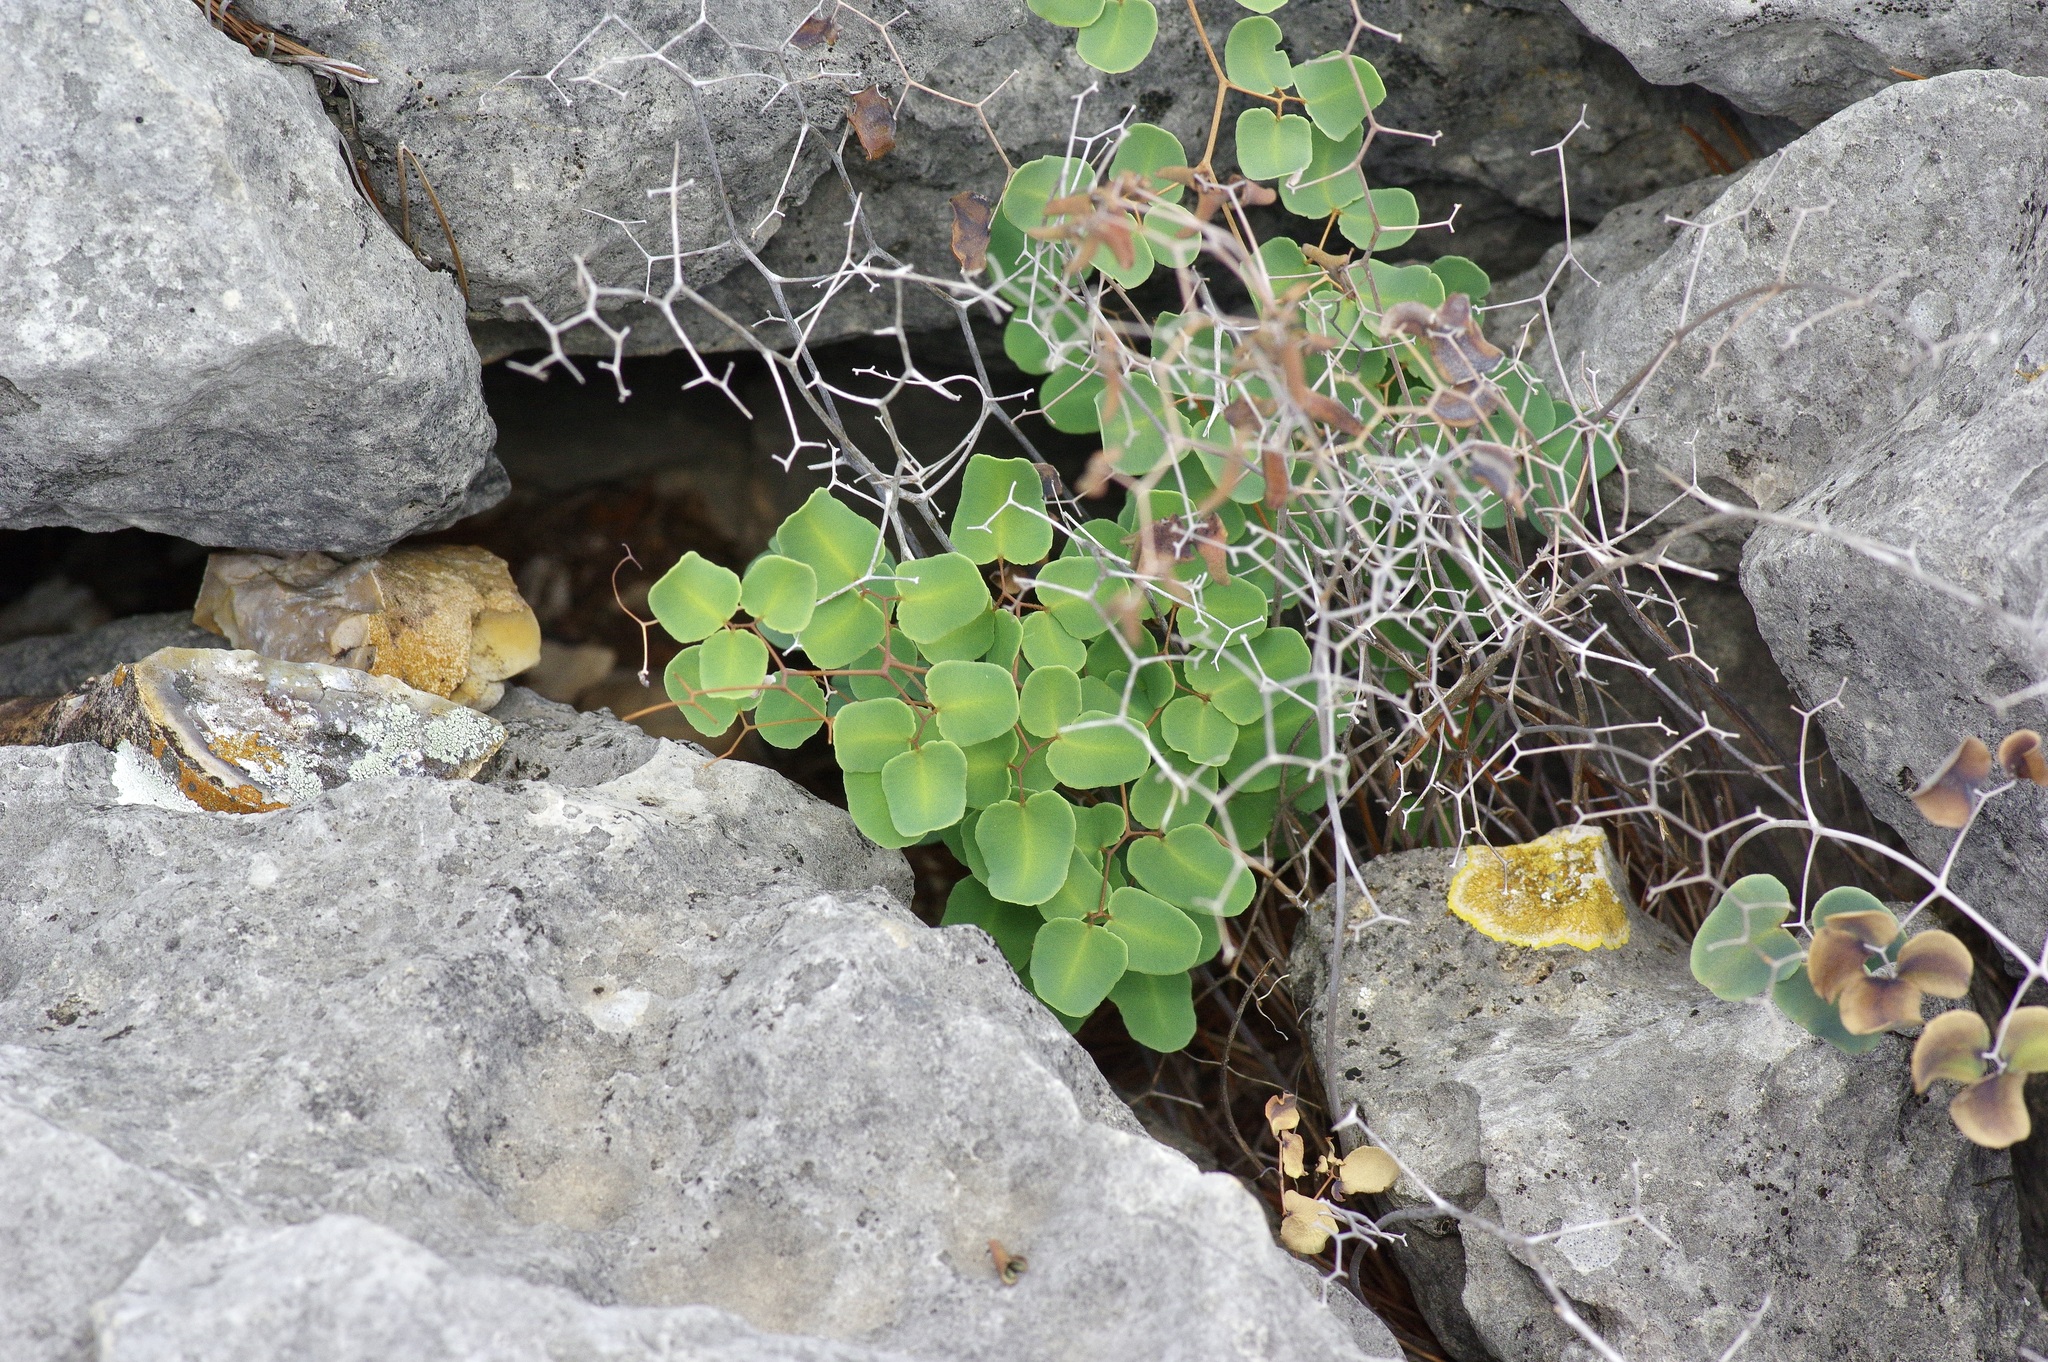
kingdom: Plantae
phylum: Tracheophyta
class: Polypodiopsida
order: Polypodiales
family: Pteridaceae
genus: Pellaea
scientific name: Pellaea ovata
